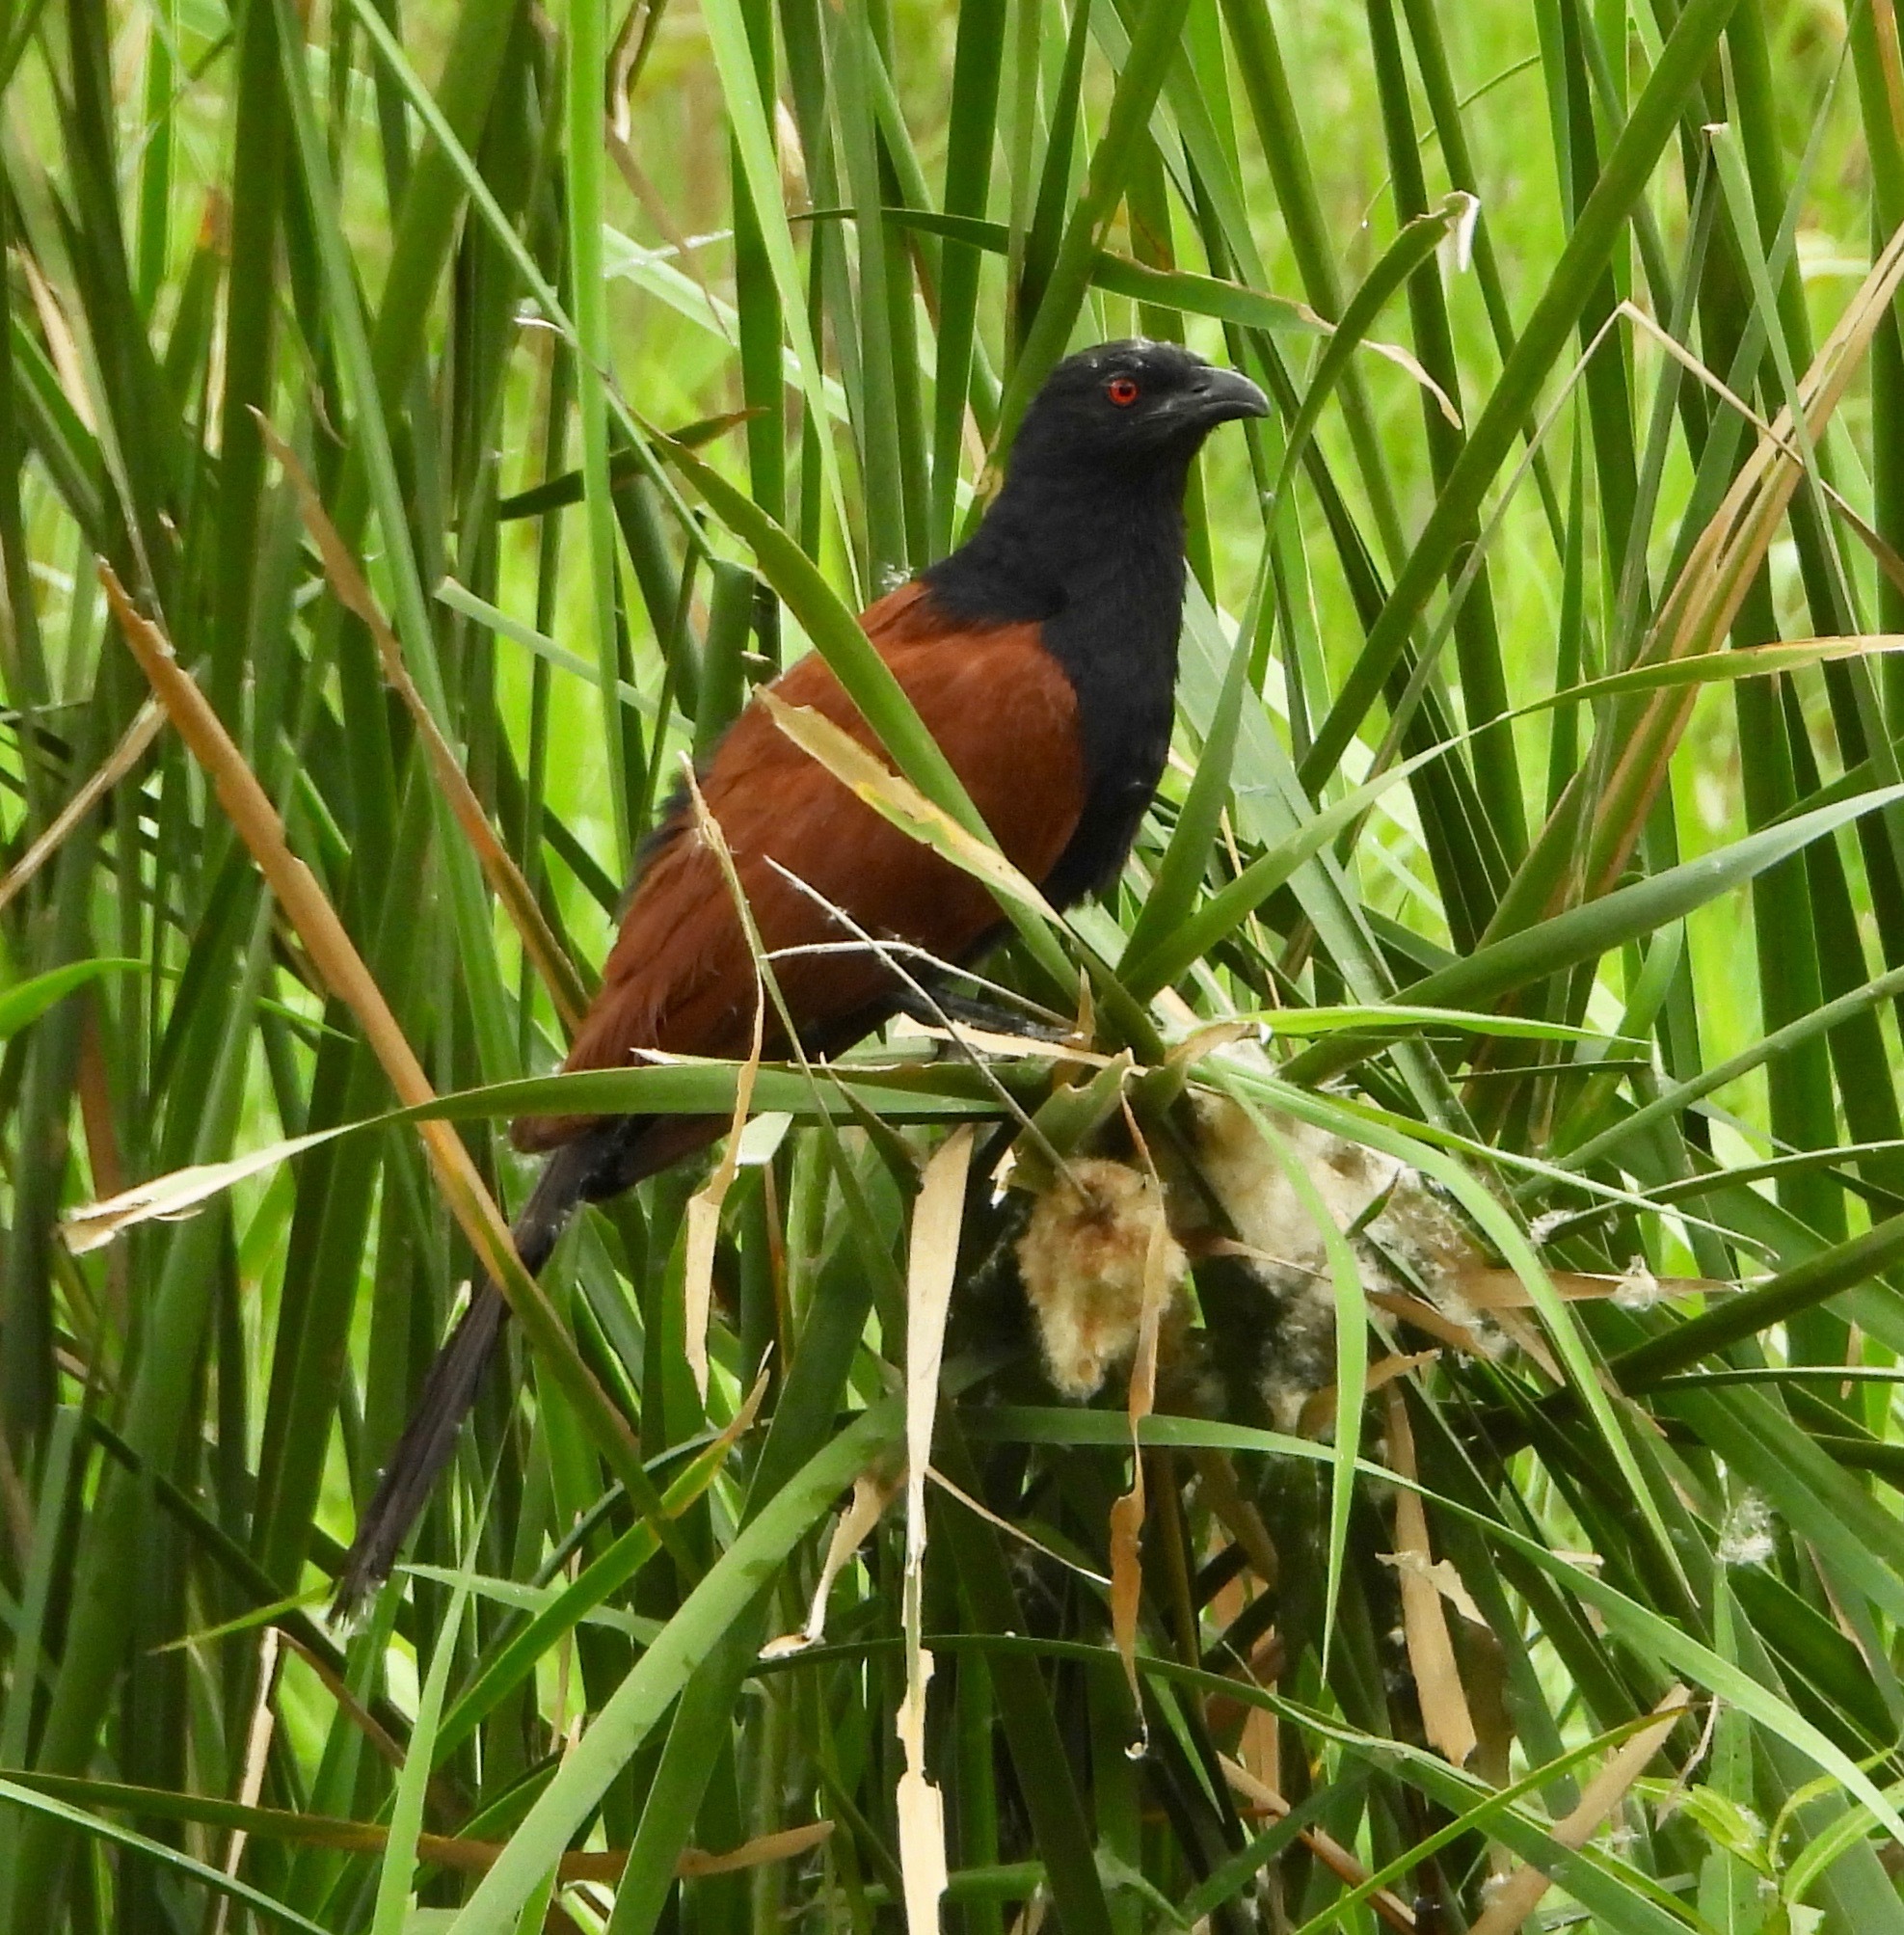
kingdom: Animalia
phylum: Chordata
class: Aves
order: Cuculiformes
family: Cuculidae
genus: Centropus
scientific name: Centropus sinensis
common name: Greater coucal
